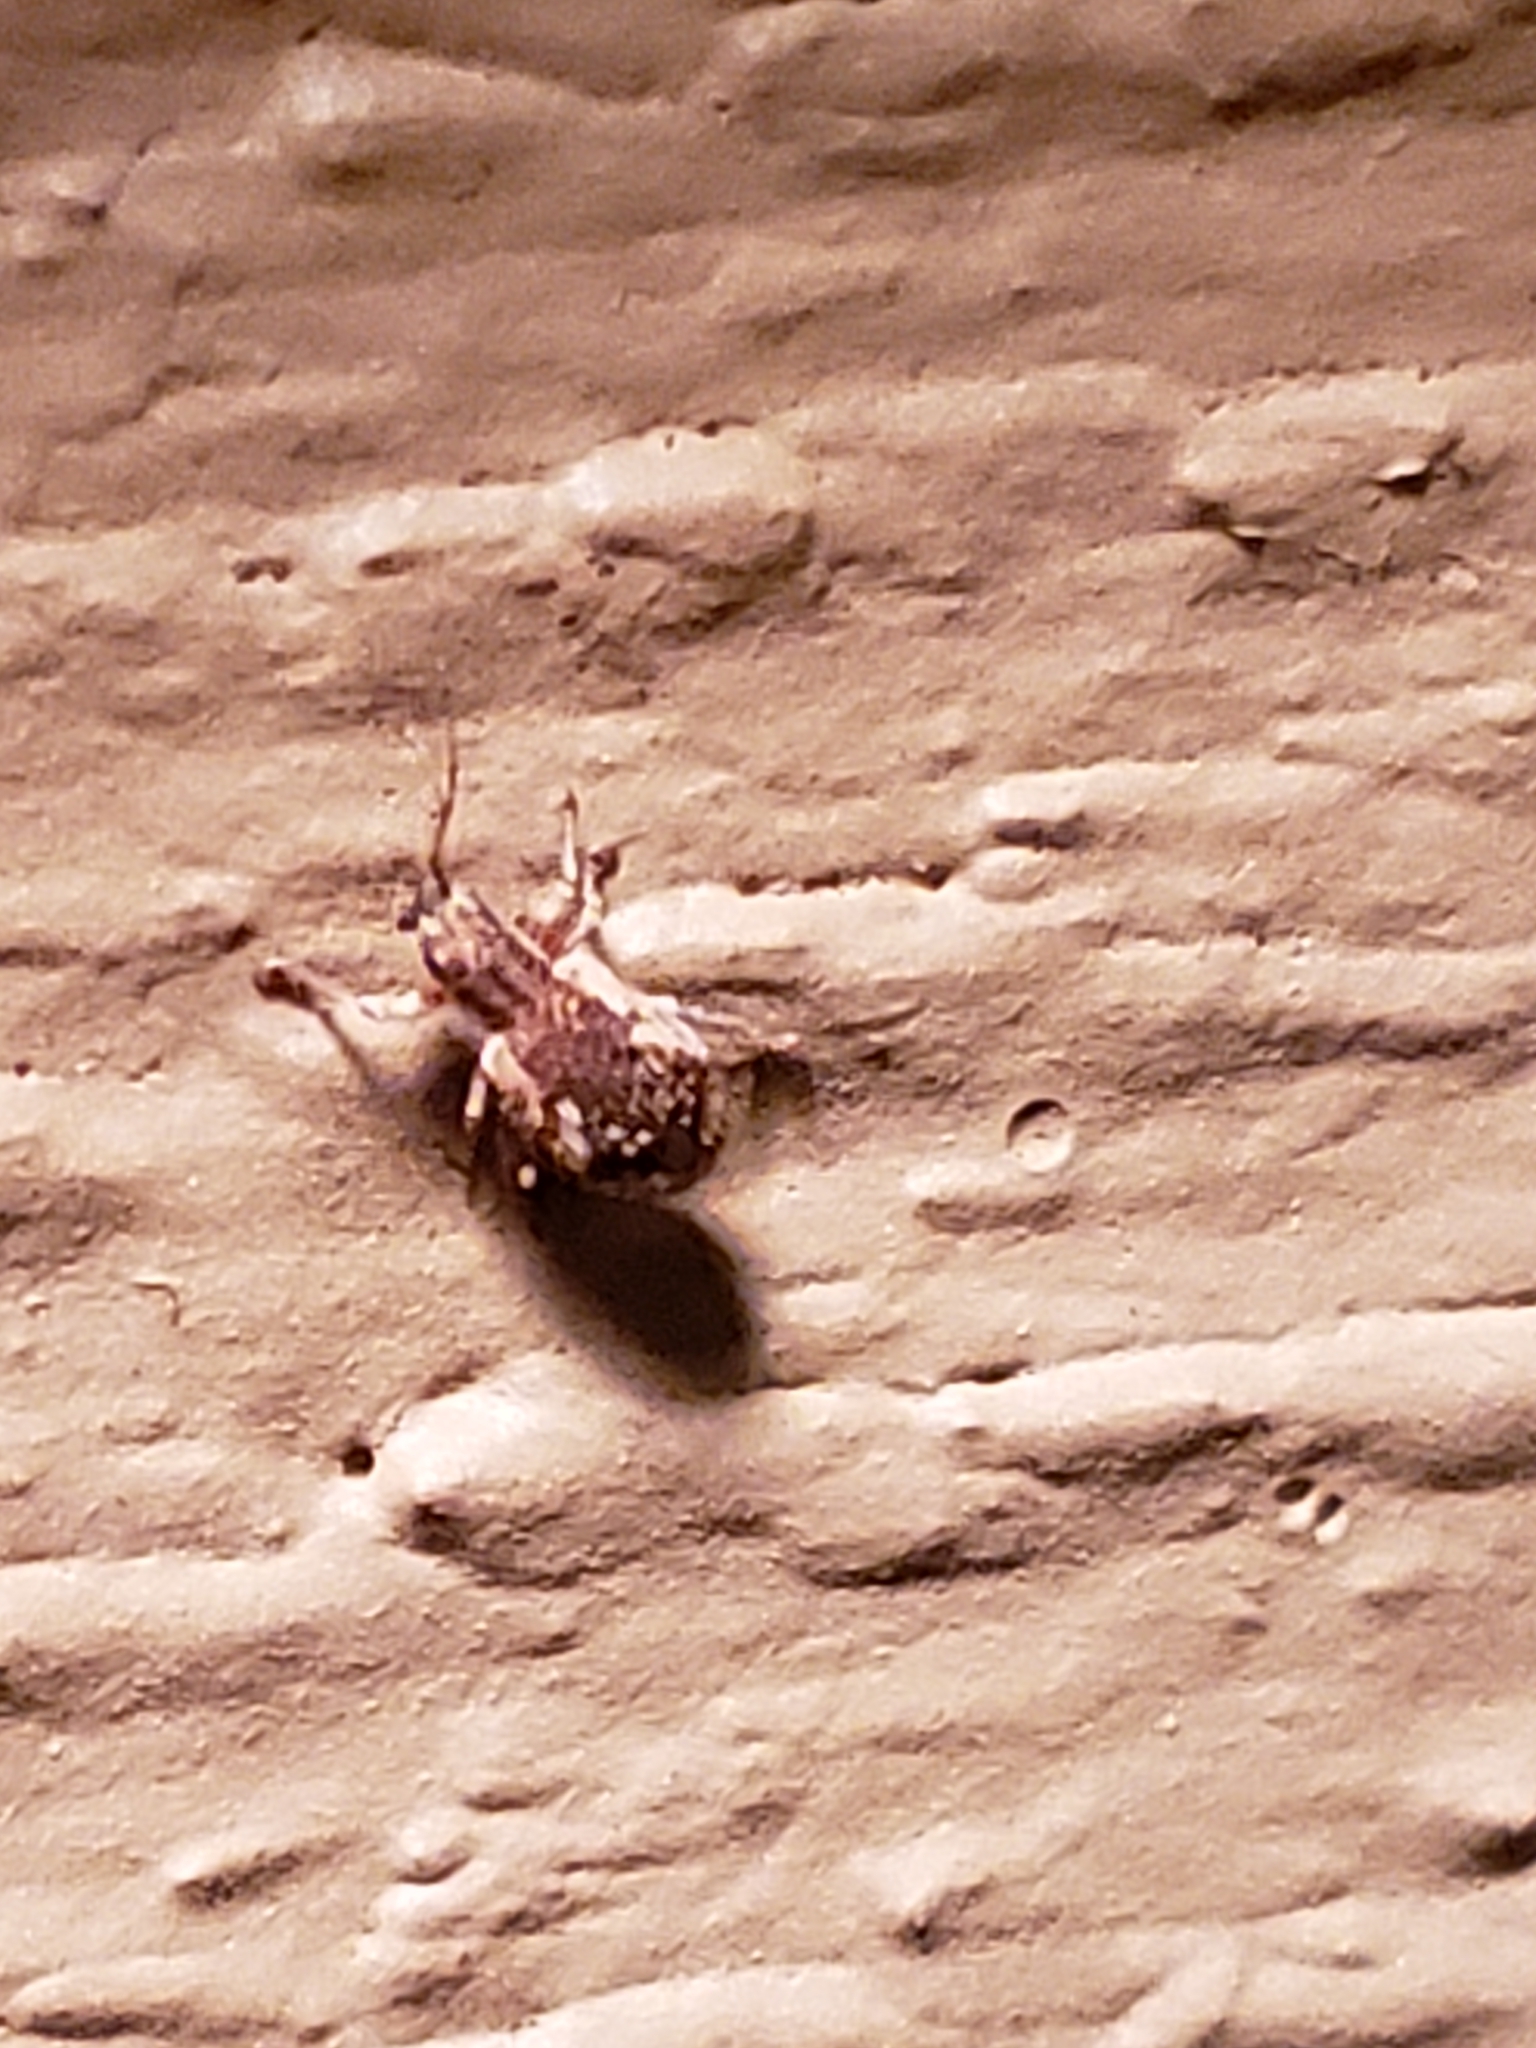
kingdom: Animalia
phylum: Arthropoda
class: Insecta
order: Coleoptera
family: Curculionidae
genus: Pseudoedophrys
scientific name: Pseudoedophrys hilleri
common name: Weevil
